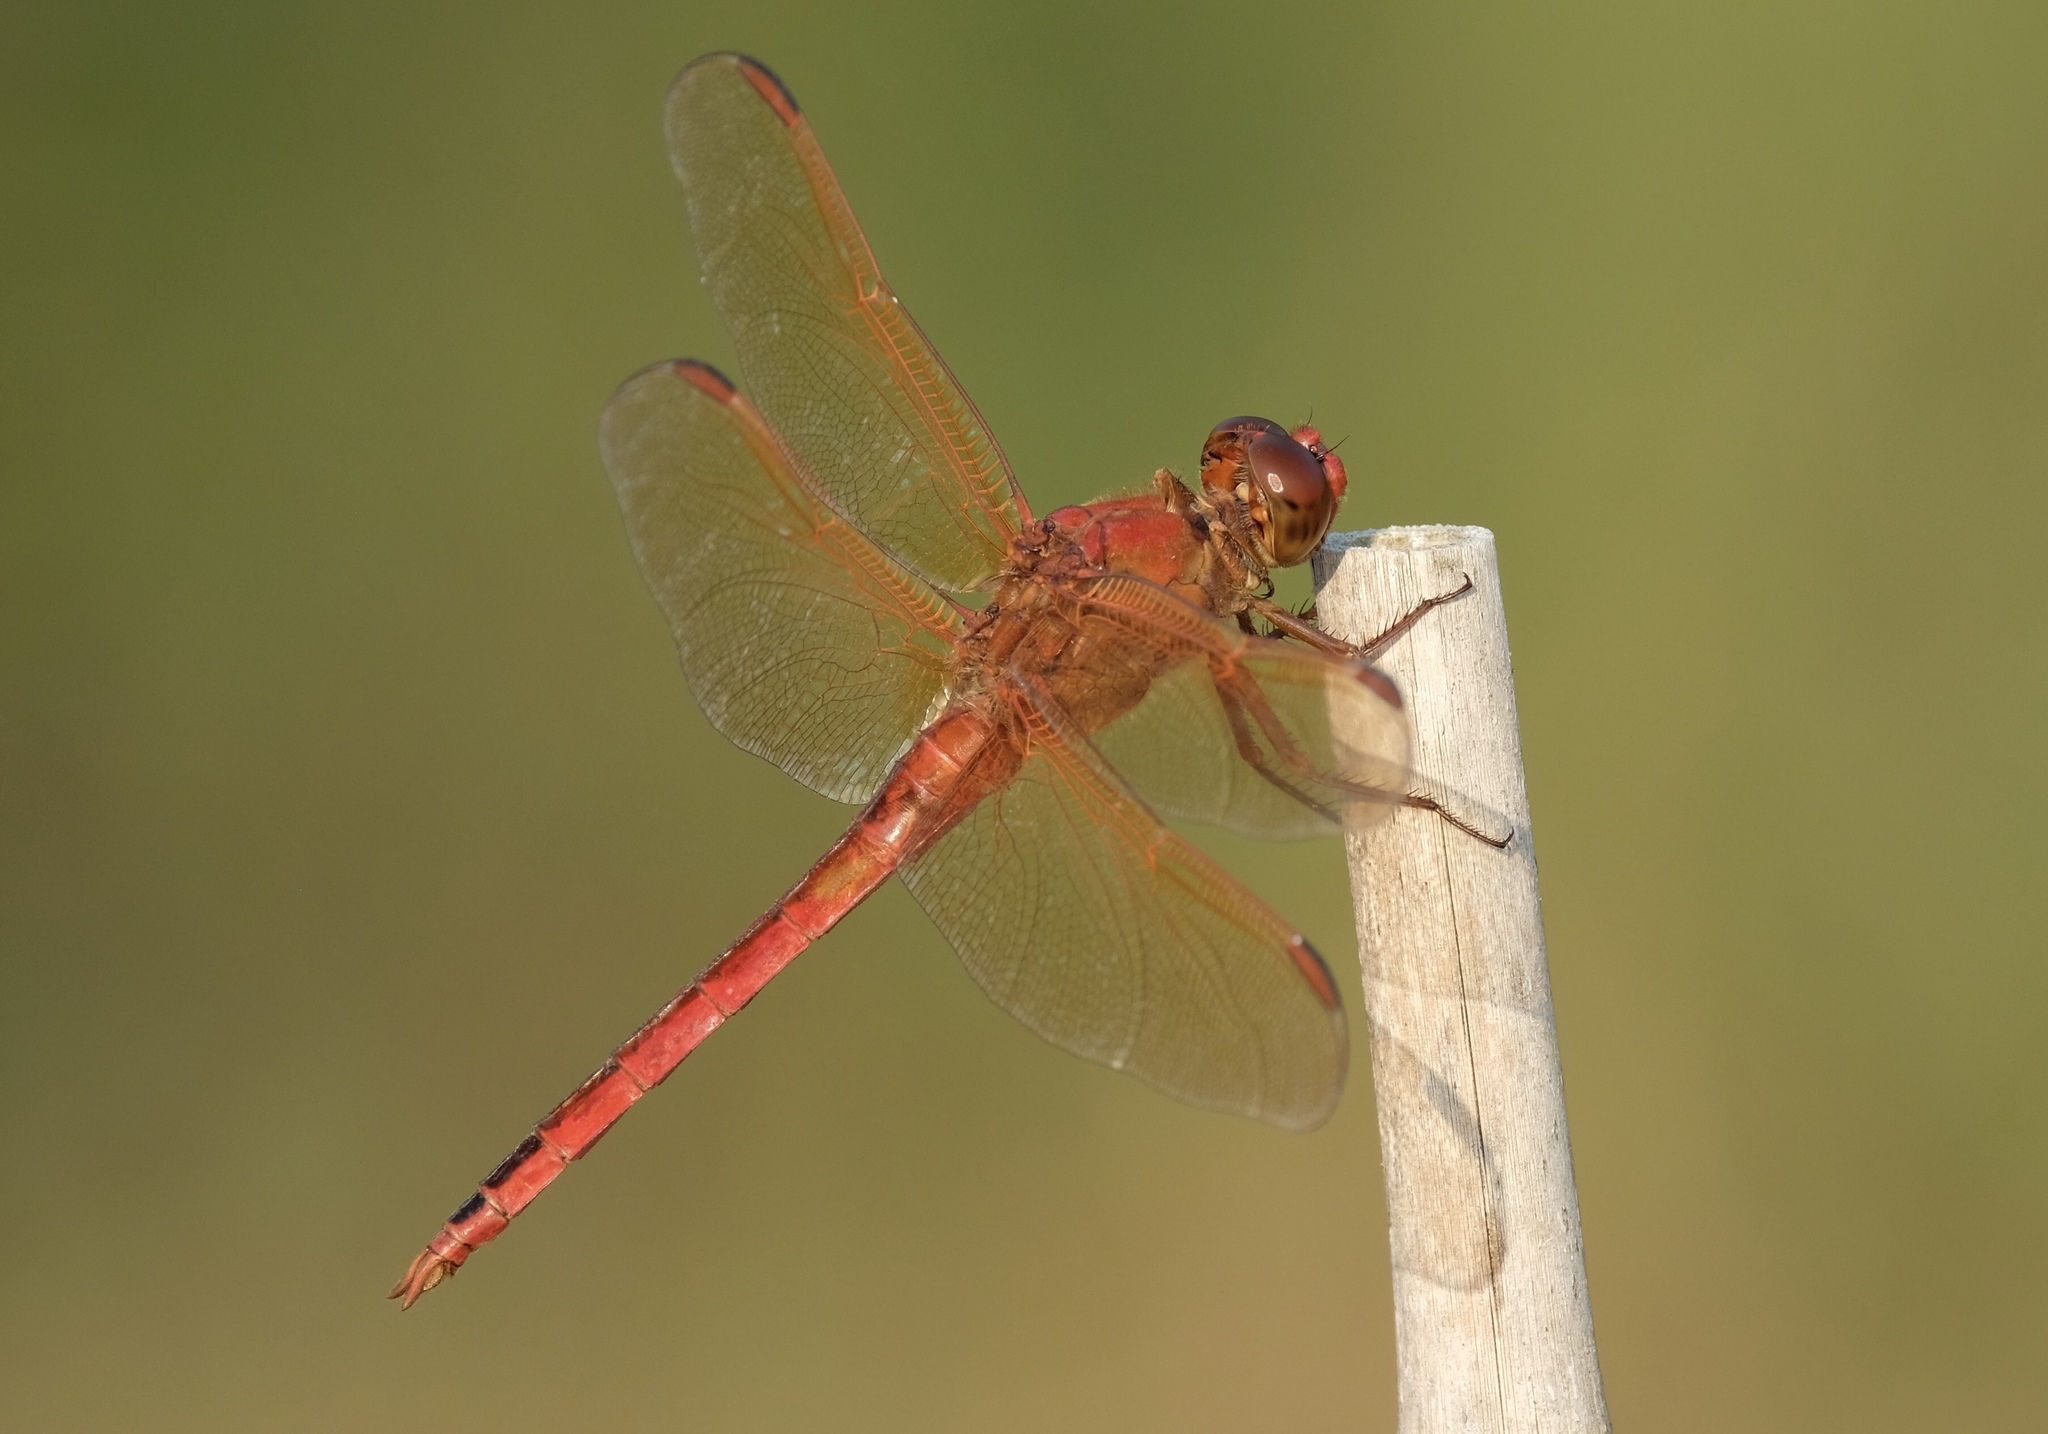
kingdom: Animalia
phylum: Arthropoda
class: Insecta
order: Odonata
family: Libellulidae
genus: Libellula
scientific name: Libellula needhami
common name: Needham's skimmer
